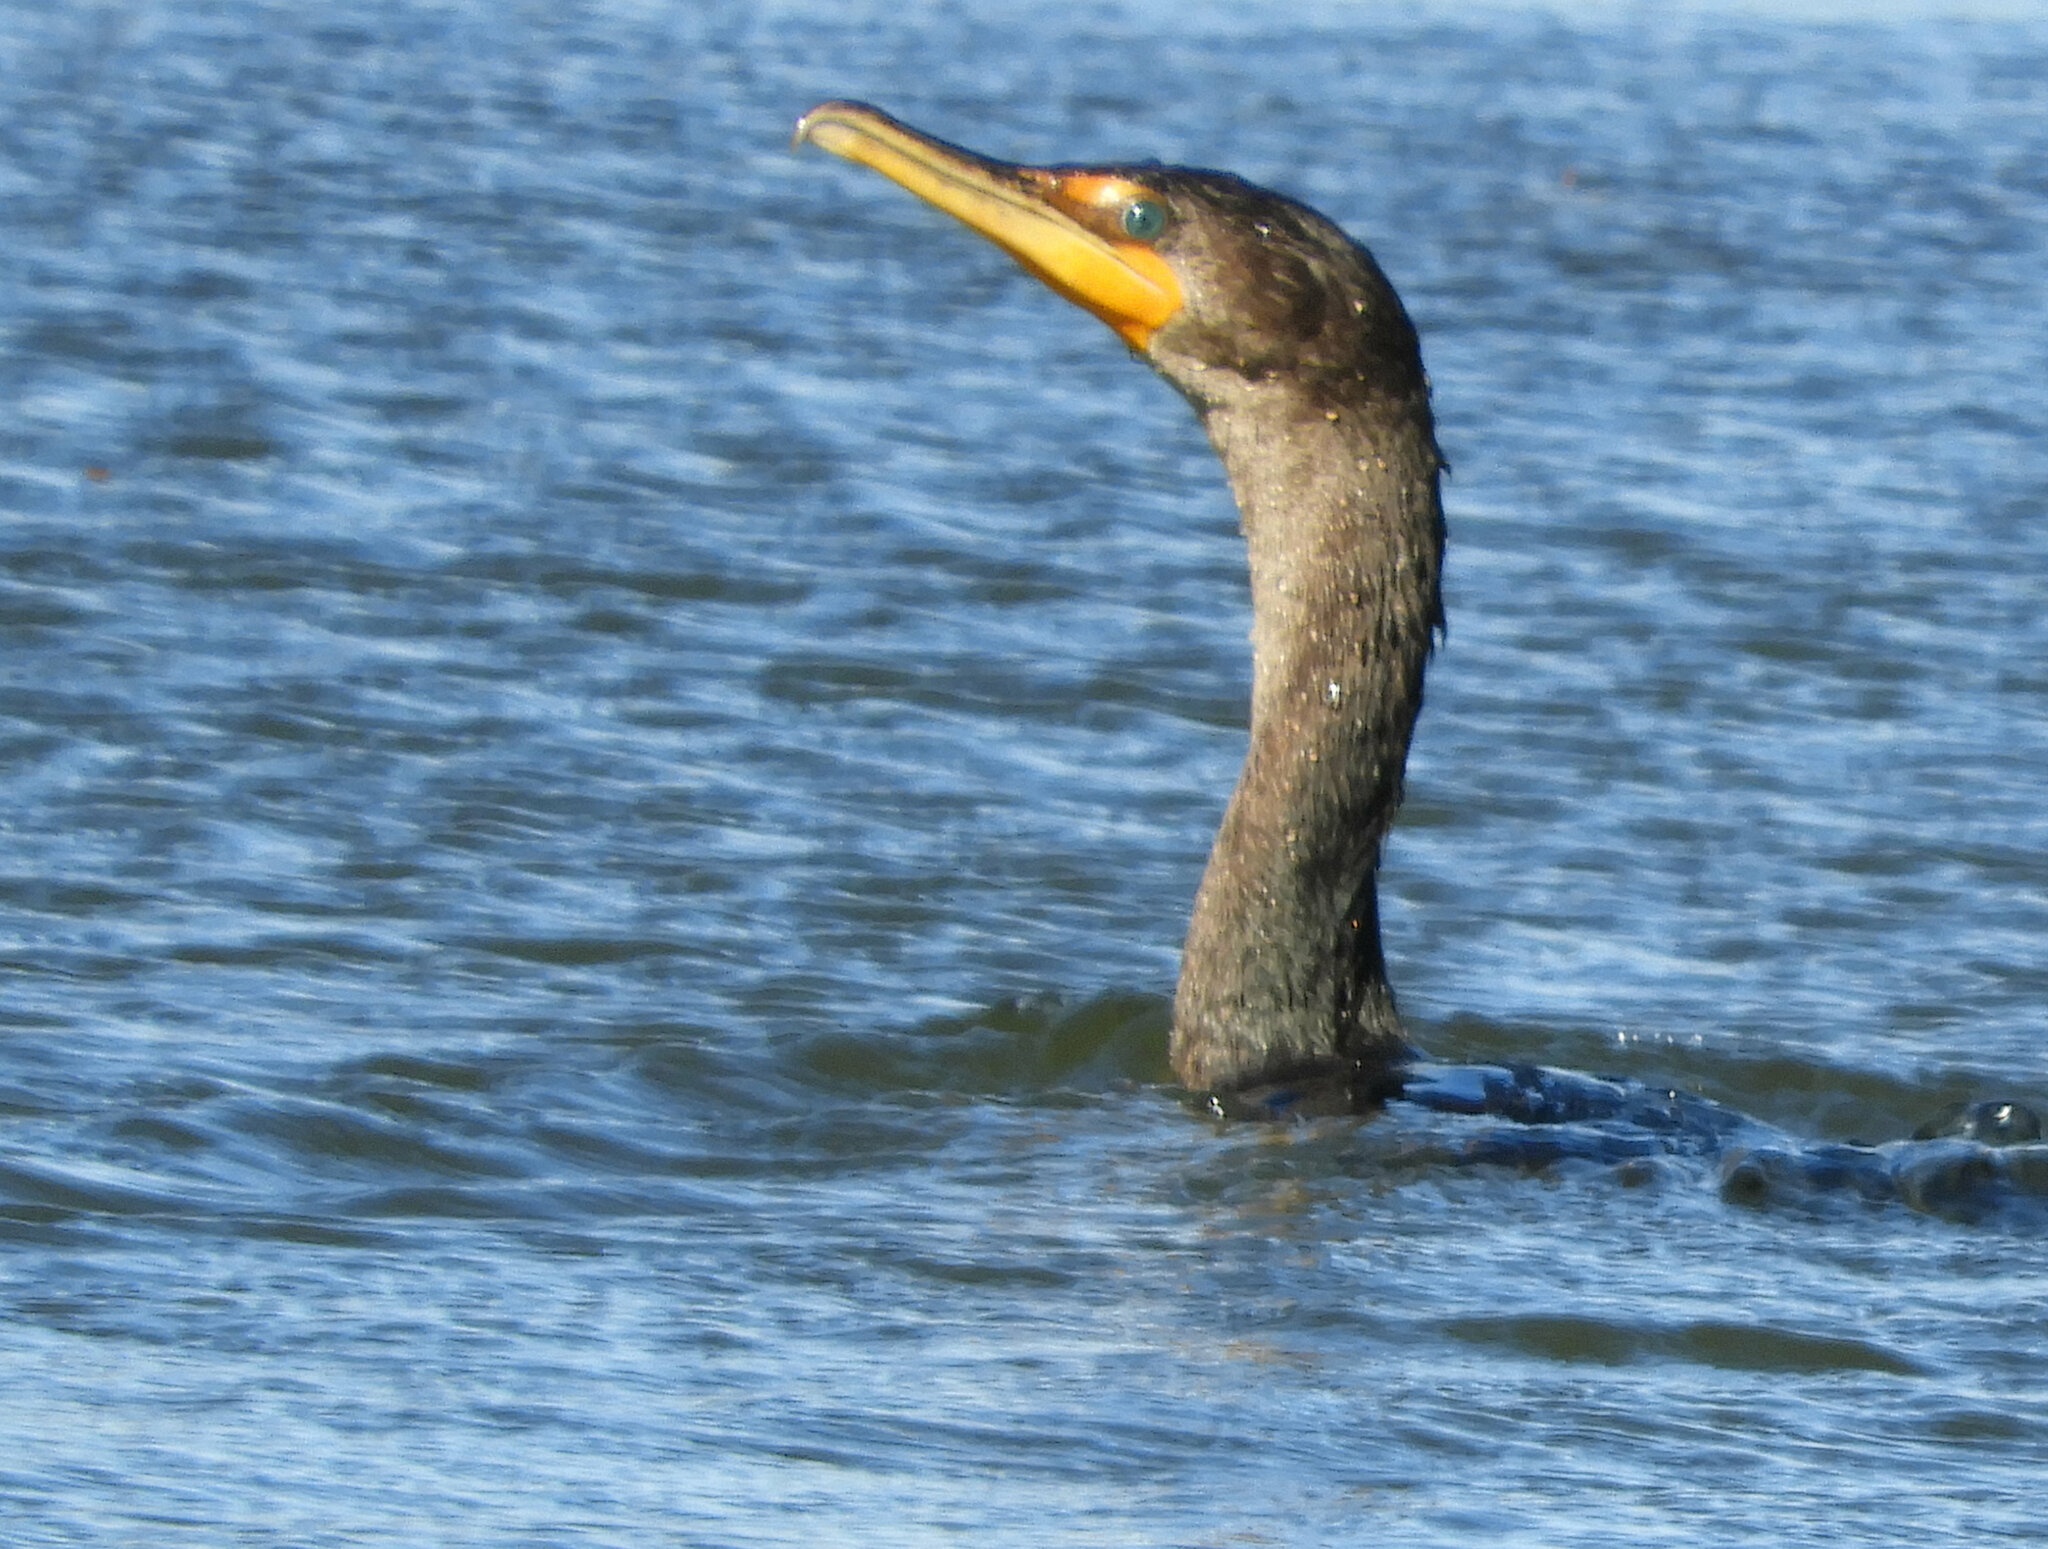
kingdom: Animalia
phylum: Chordata
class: Aves
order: Suliformes
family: Phalacrocoracidae
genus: Phalacrocorax
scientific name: Phalacrocorax auritus
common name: Double-crested cormorant
